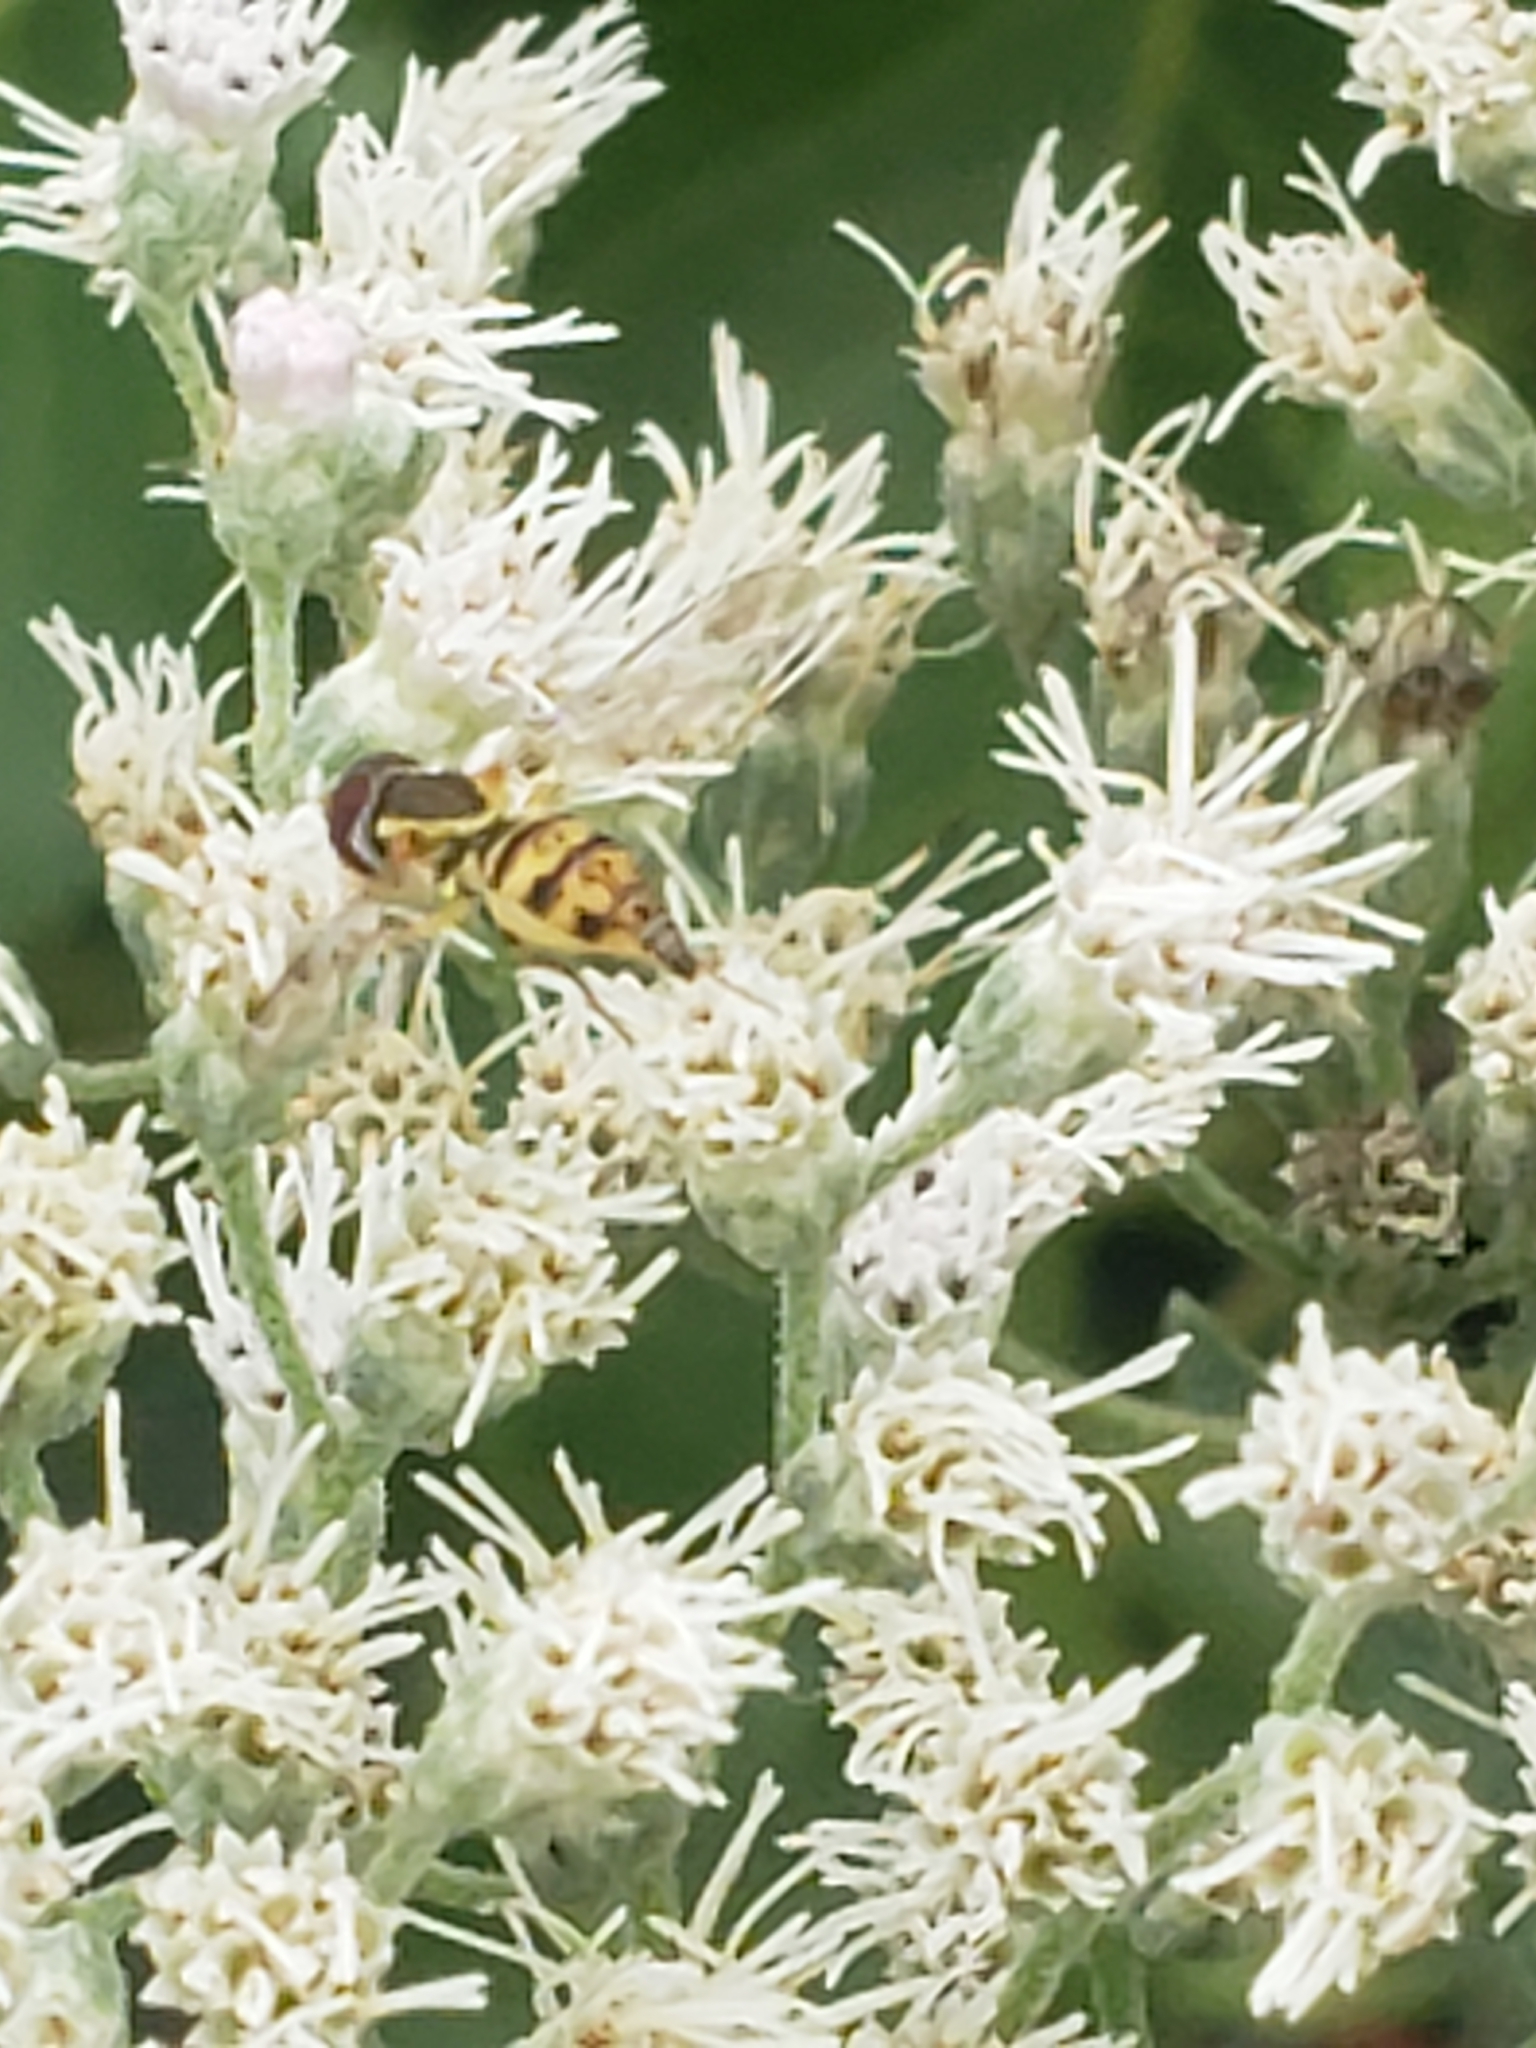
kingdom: Animalia
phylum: Arthropoda
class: Insecta
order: Diptera
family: Syrphidae
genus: Toxomerus
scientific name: Toxomerus geminatus
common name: Eastern calligrapher
